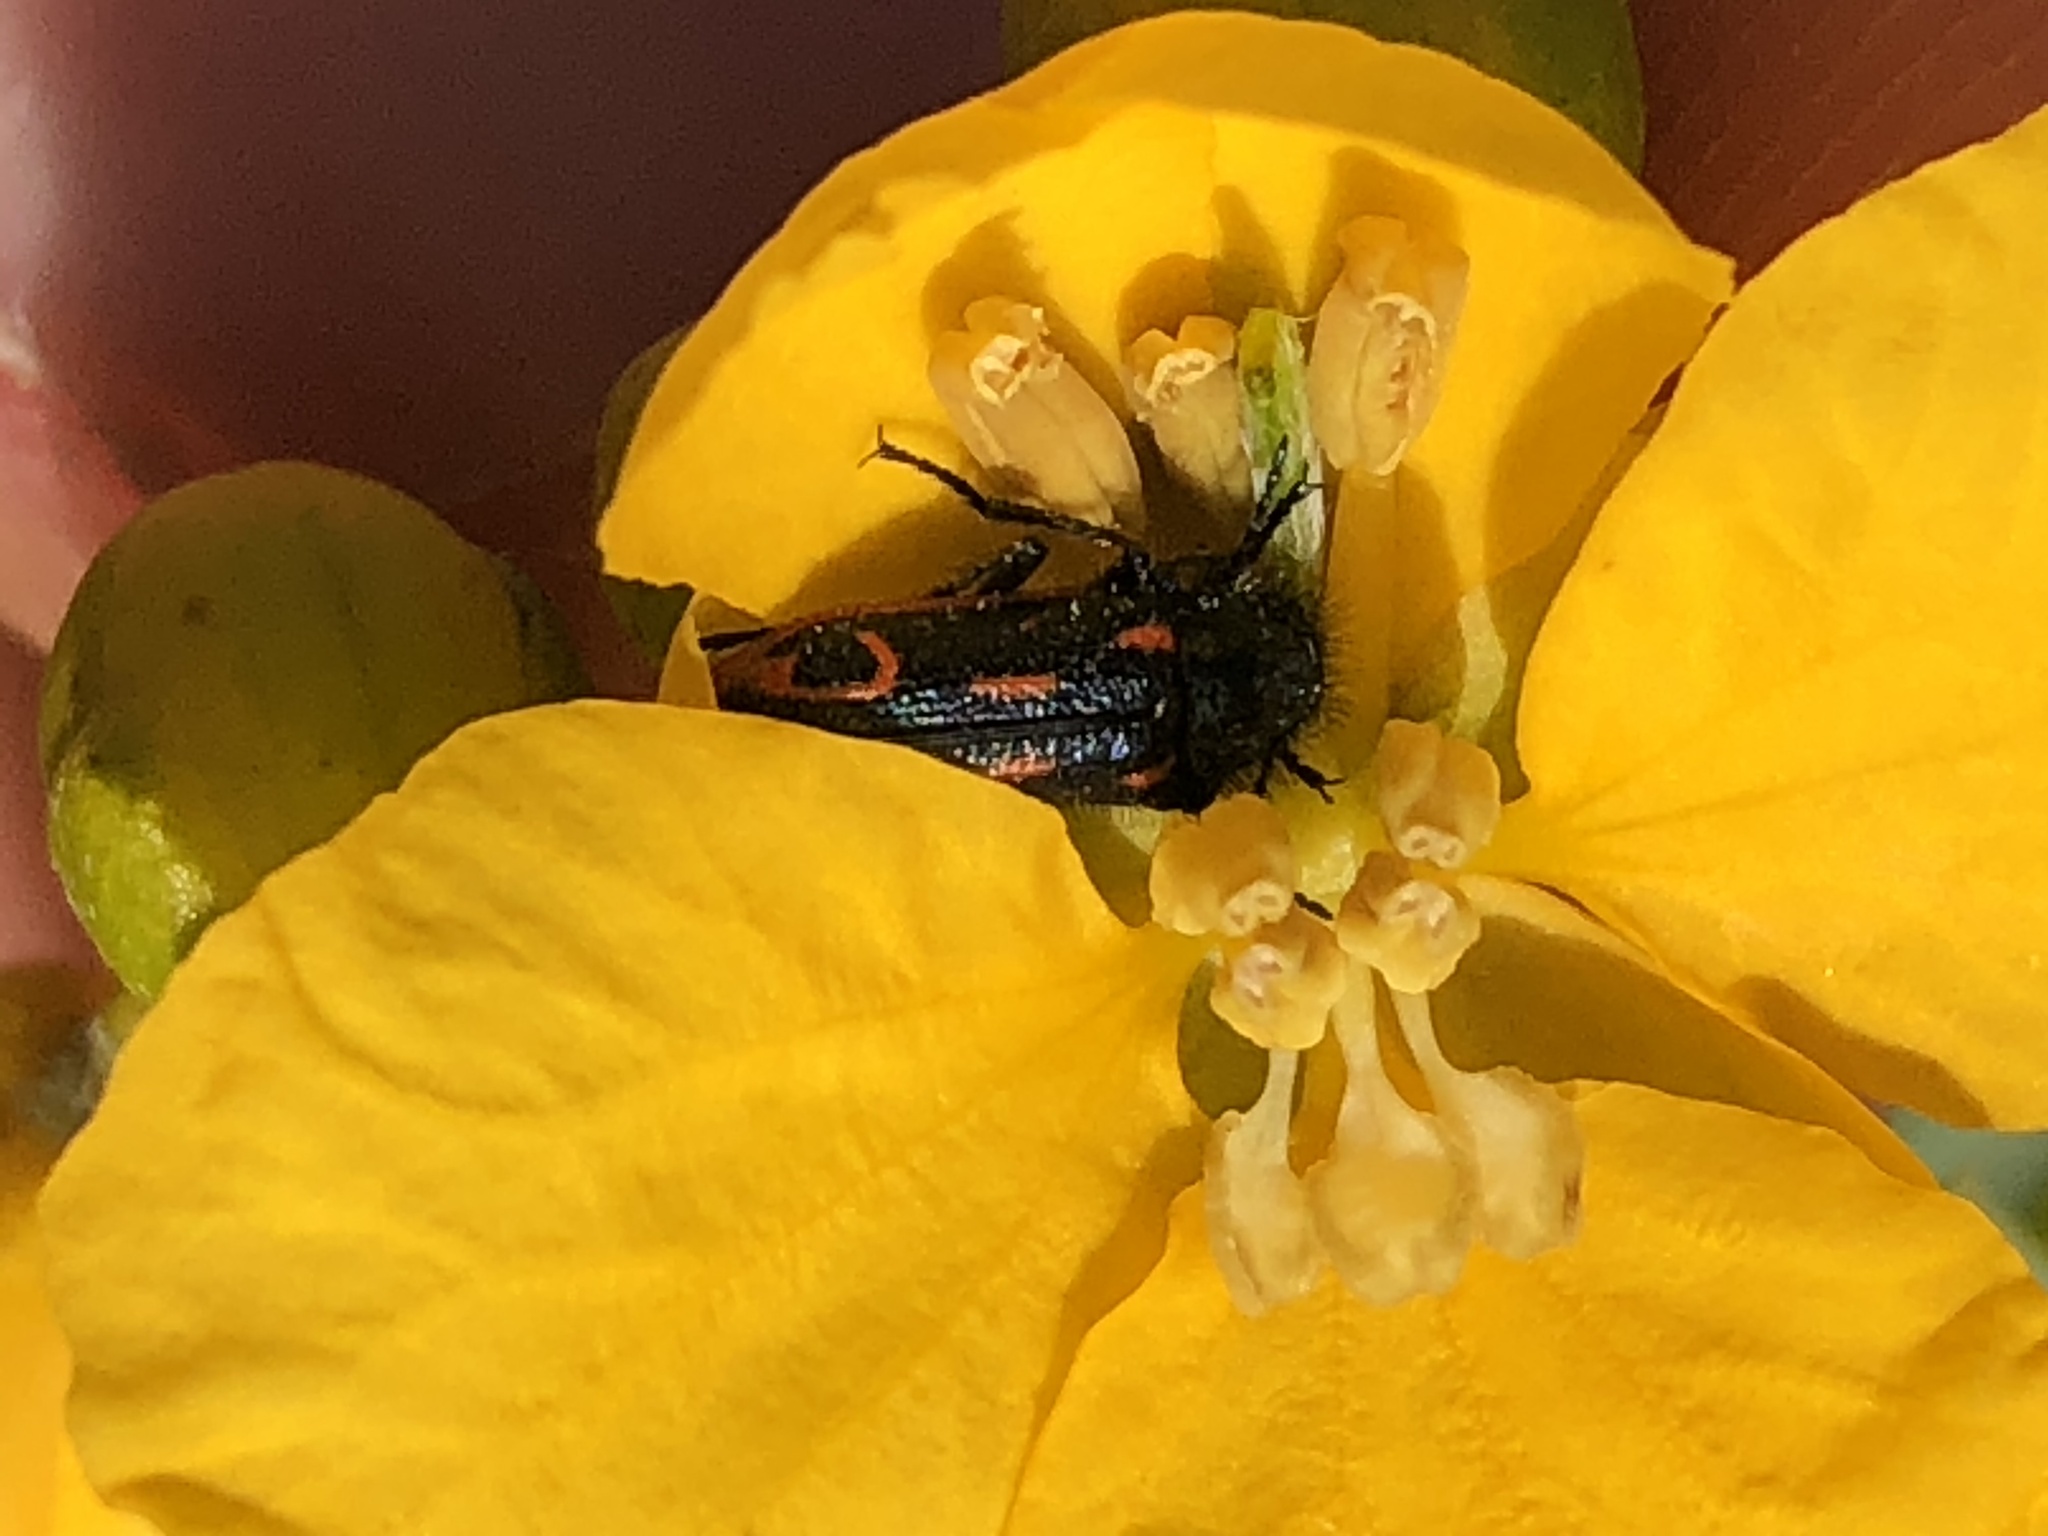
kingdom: Animalia
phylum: Arthropoda
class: Insecta
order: Coleoptera
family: Melyridae
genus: Astylus
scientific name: Astylus
